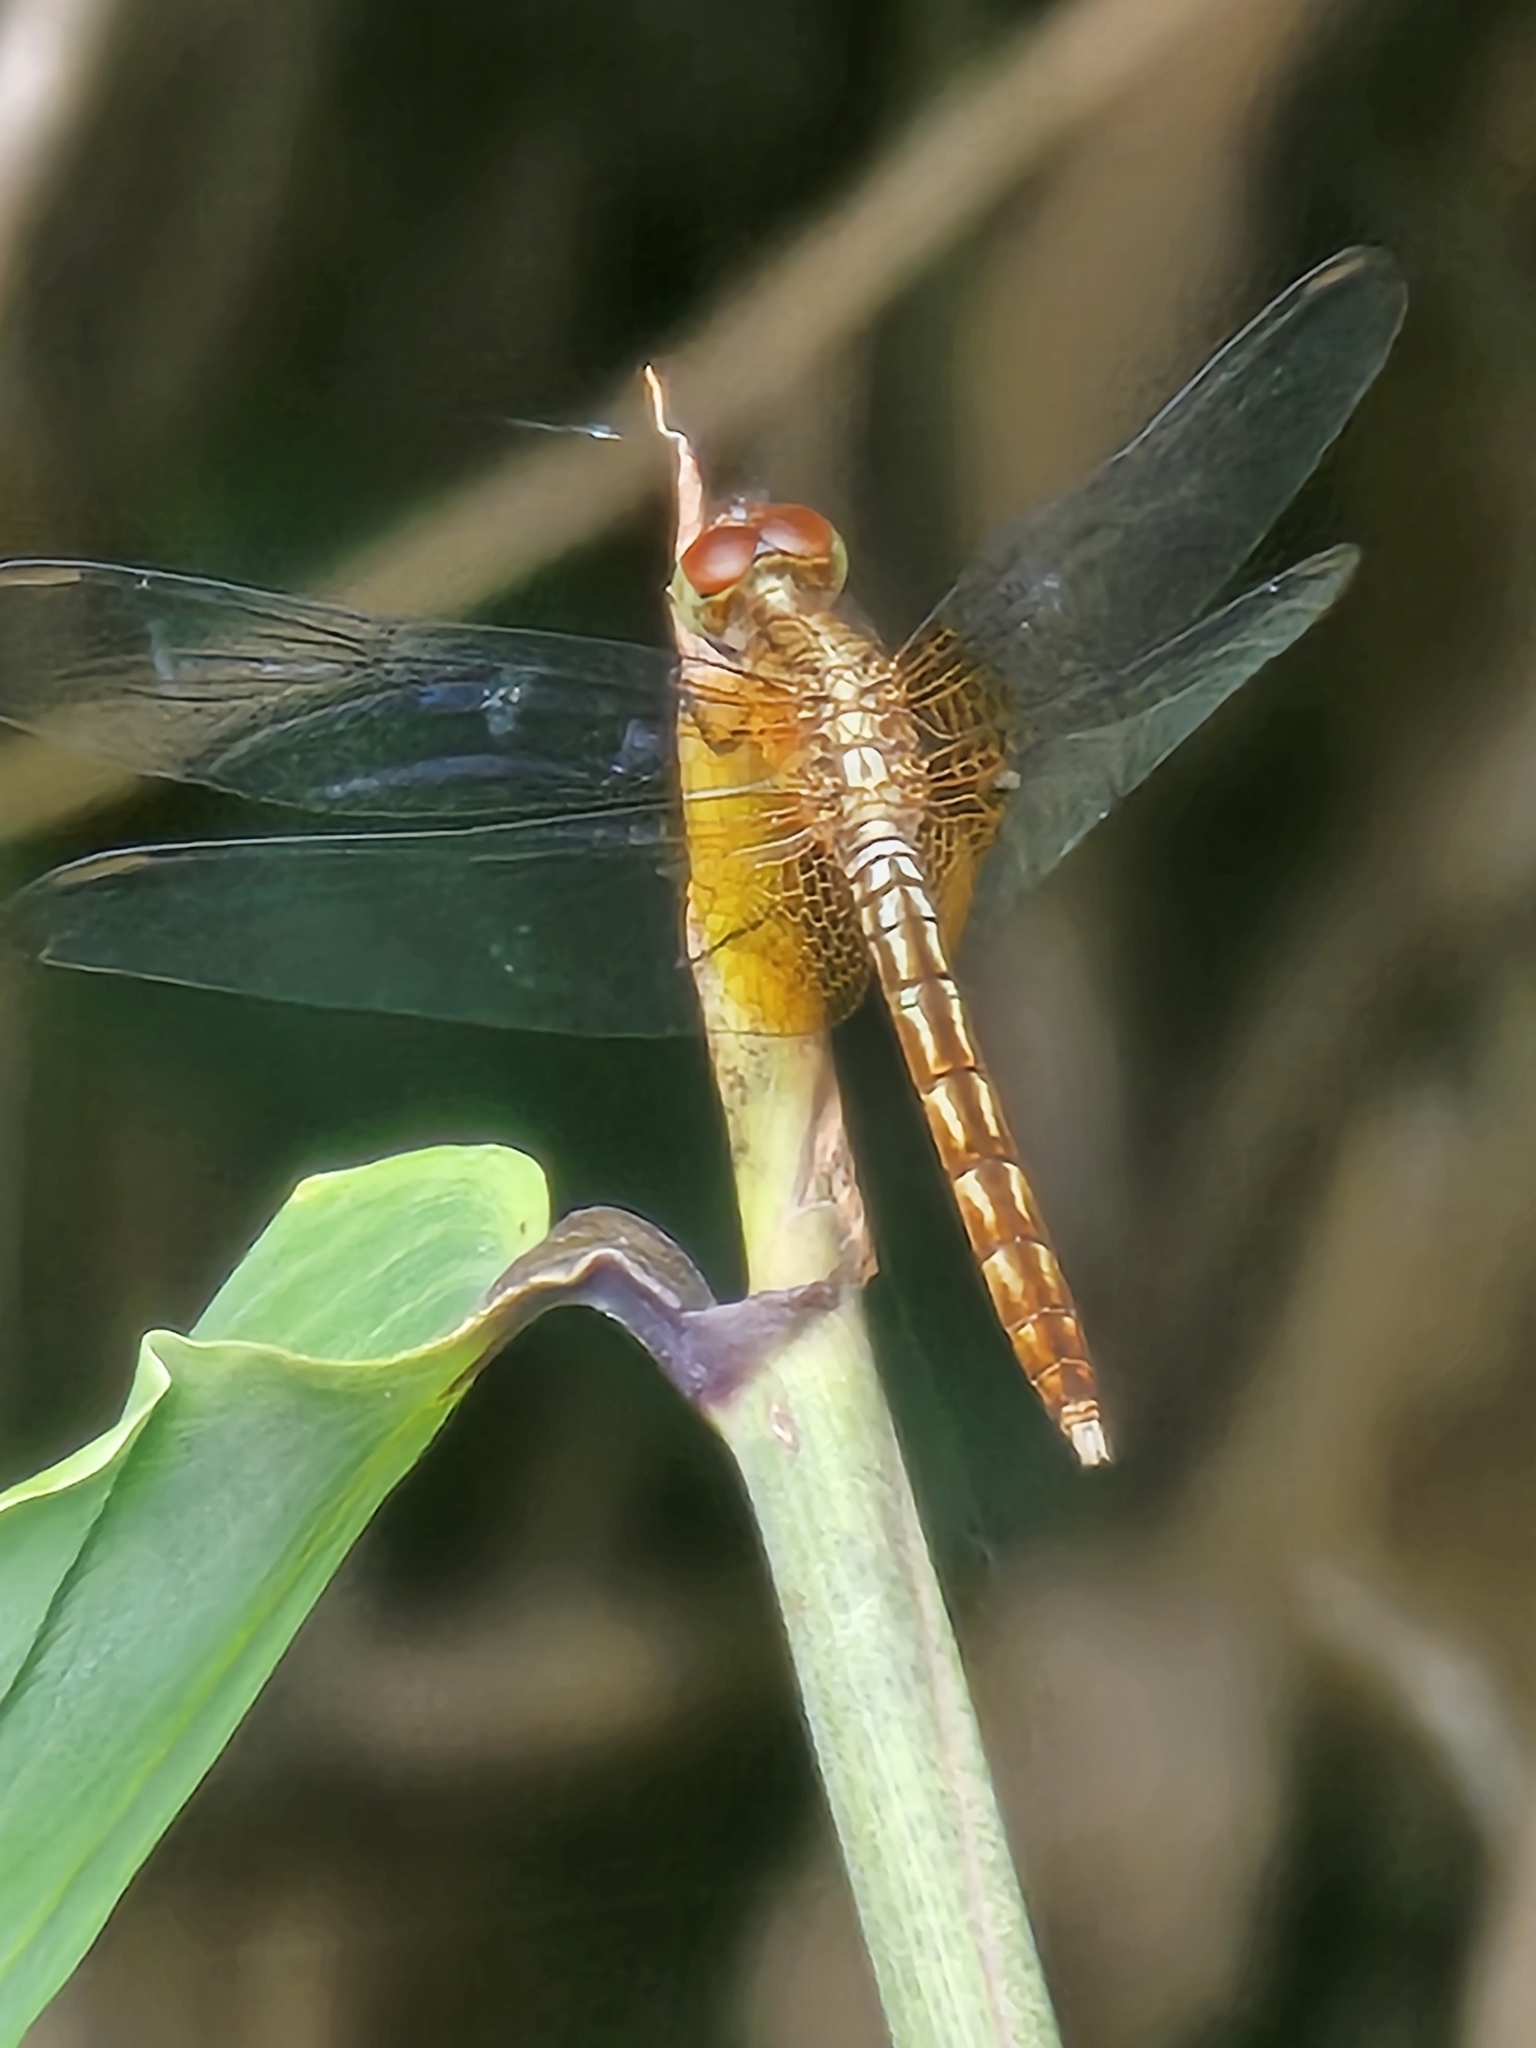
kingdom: Animalia
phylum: Arthropoda
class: Insecta
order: Odonata
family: Libellulidae
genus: Erythrodiplax
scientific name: Erythrodiplax famula
